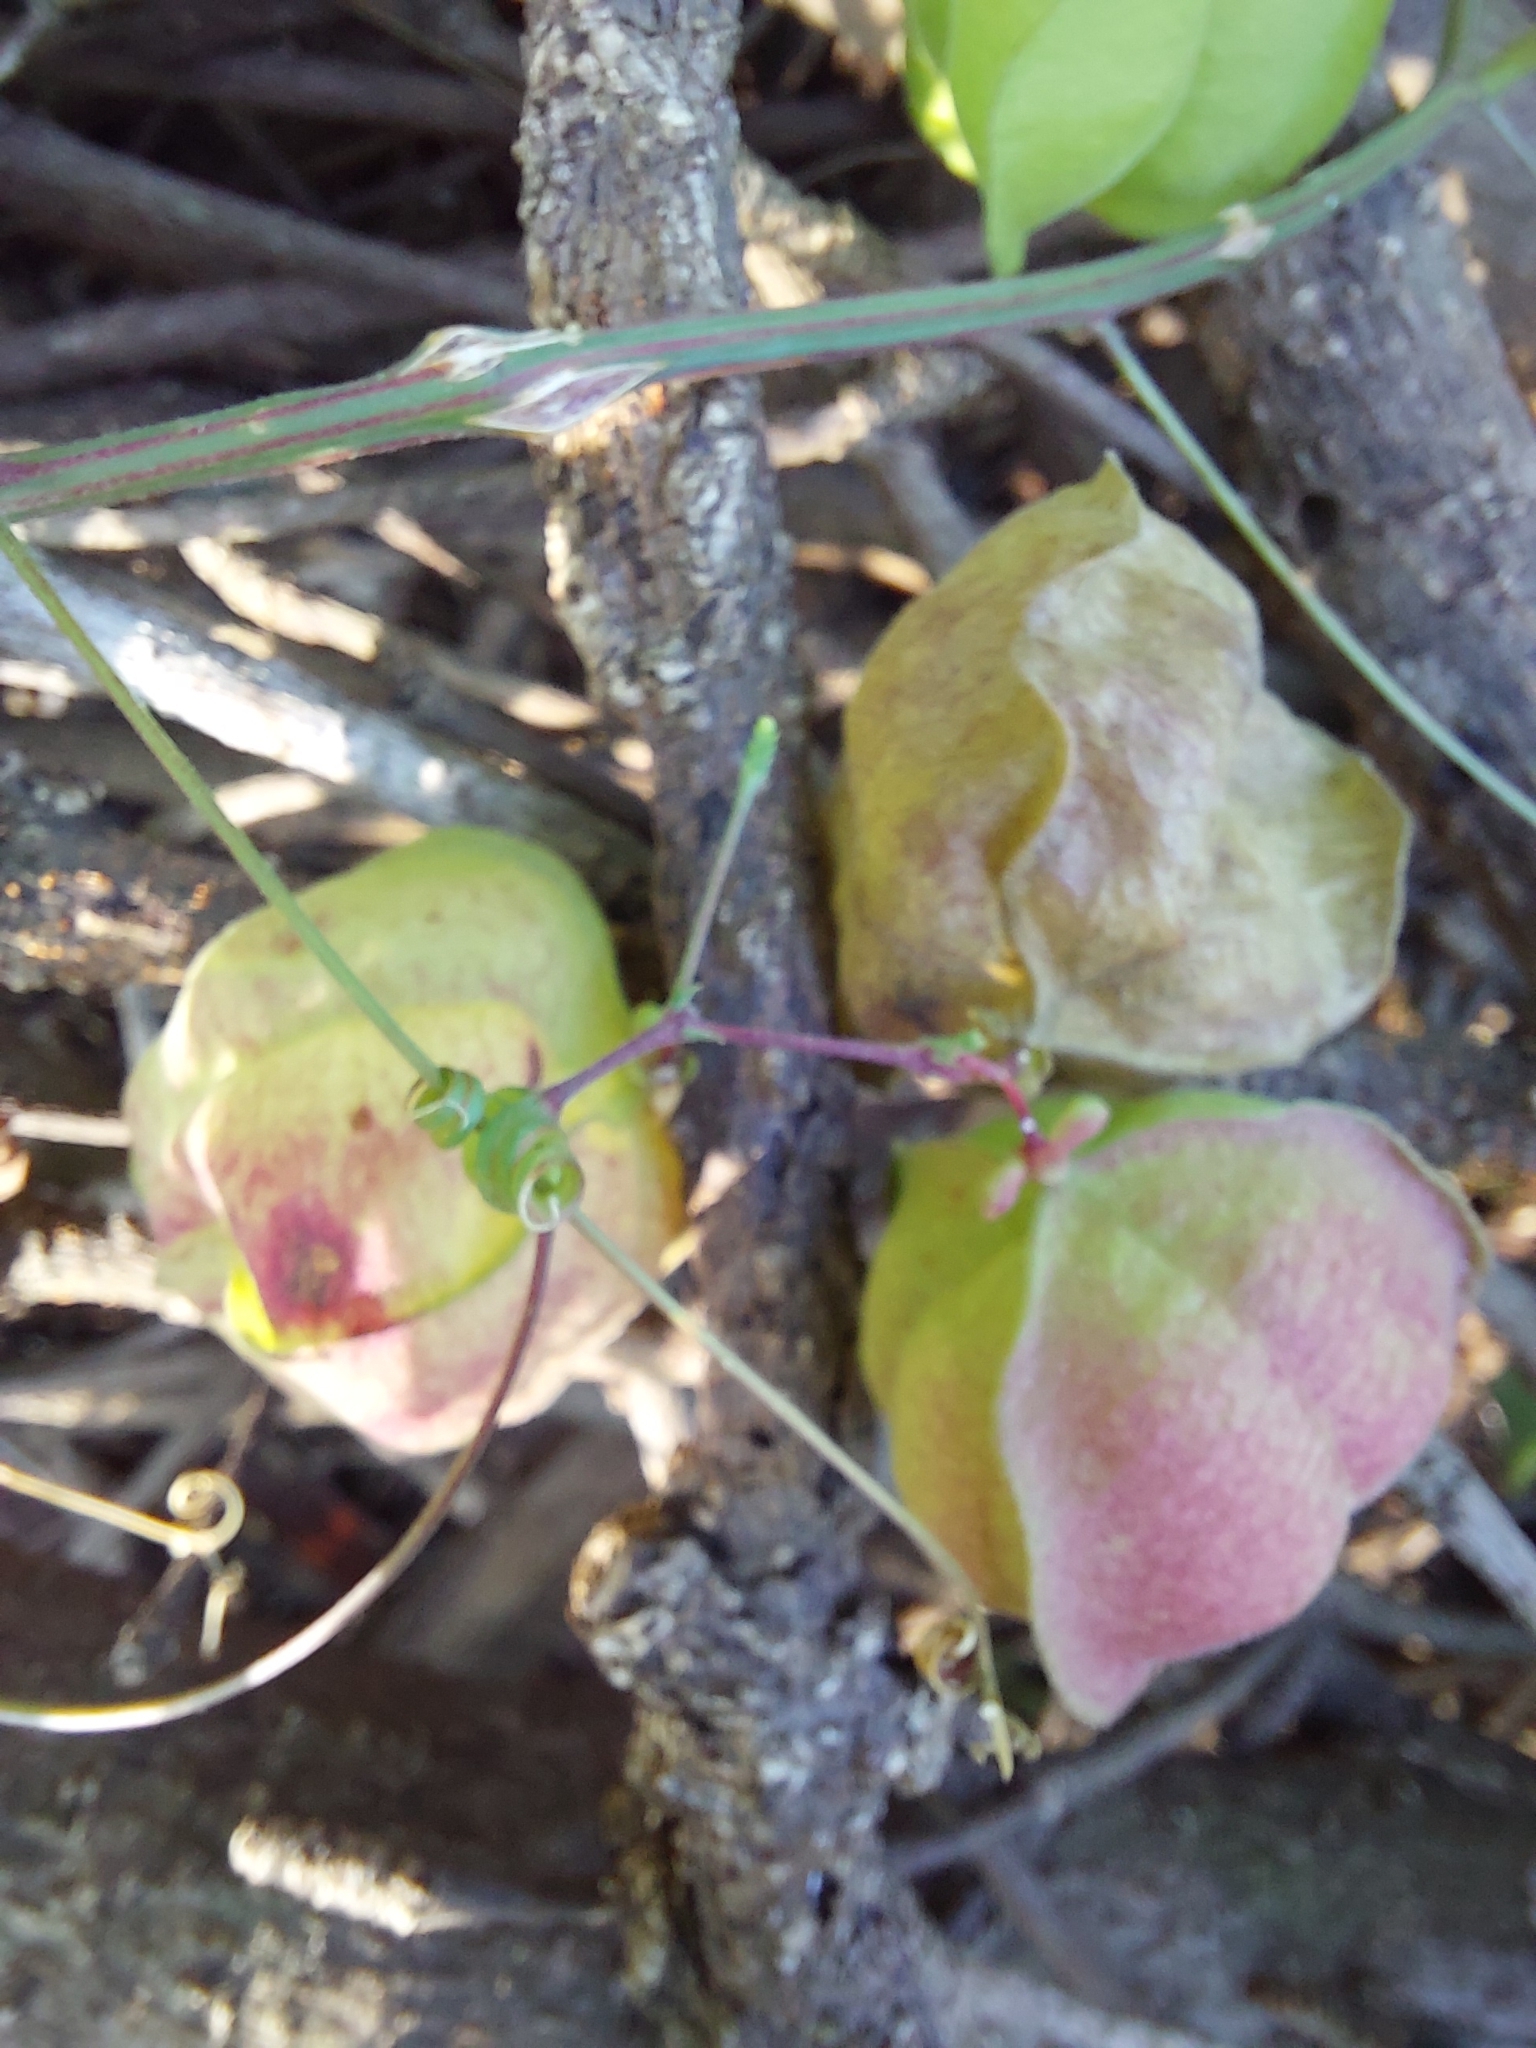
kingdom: Plantae
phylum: Tracheophyta
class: Magnoliopsida
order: Sapindales
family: Sapindaceae
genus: Cardiospermum
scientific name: Cardiospermum halicacabum
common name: Balloon vine
